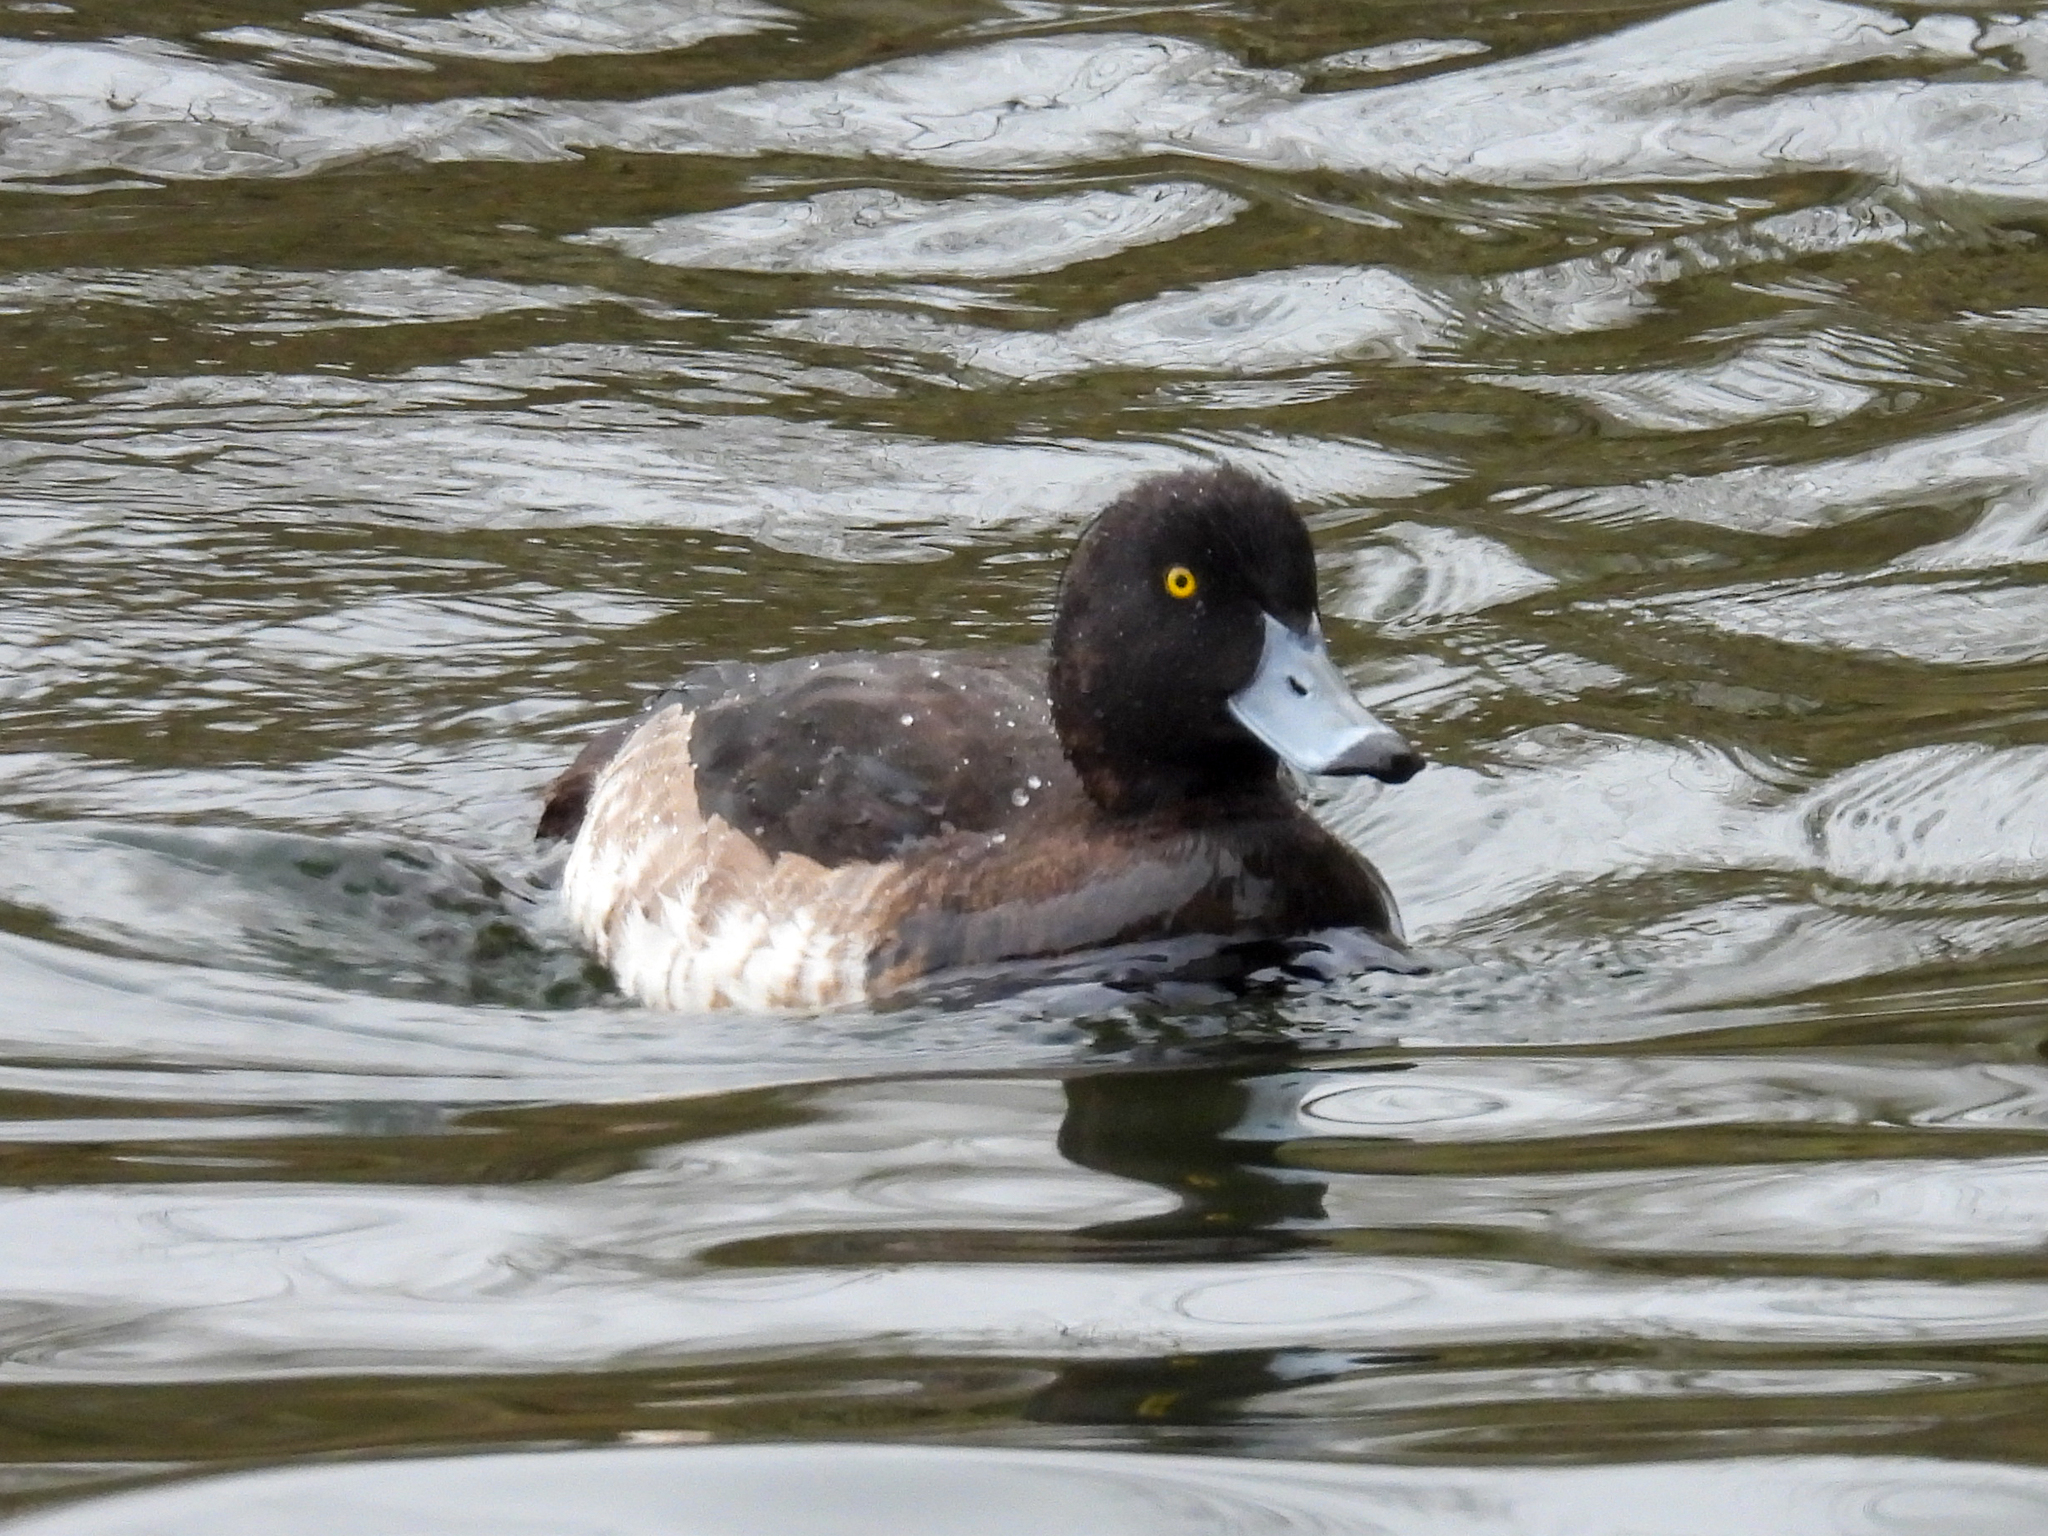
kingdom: Animalia
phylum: Chordata
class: Aves
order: Anseriformes
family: Anatidae
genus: Aythya
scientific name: Aythya fuligula
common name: Tufted duck
